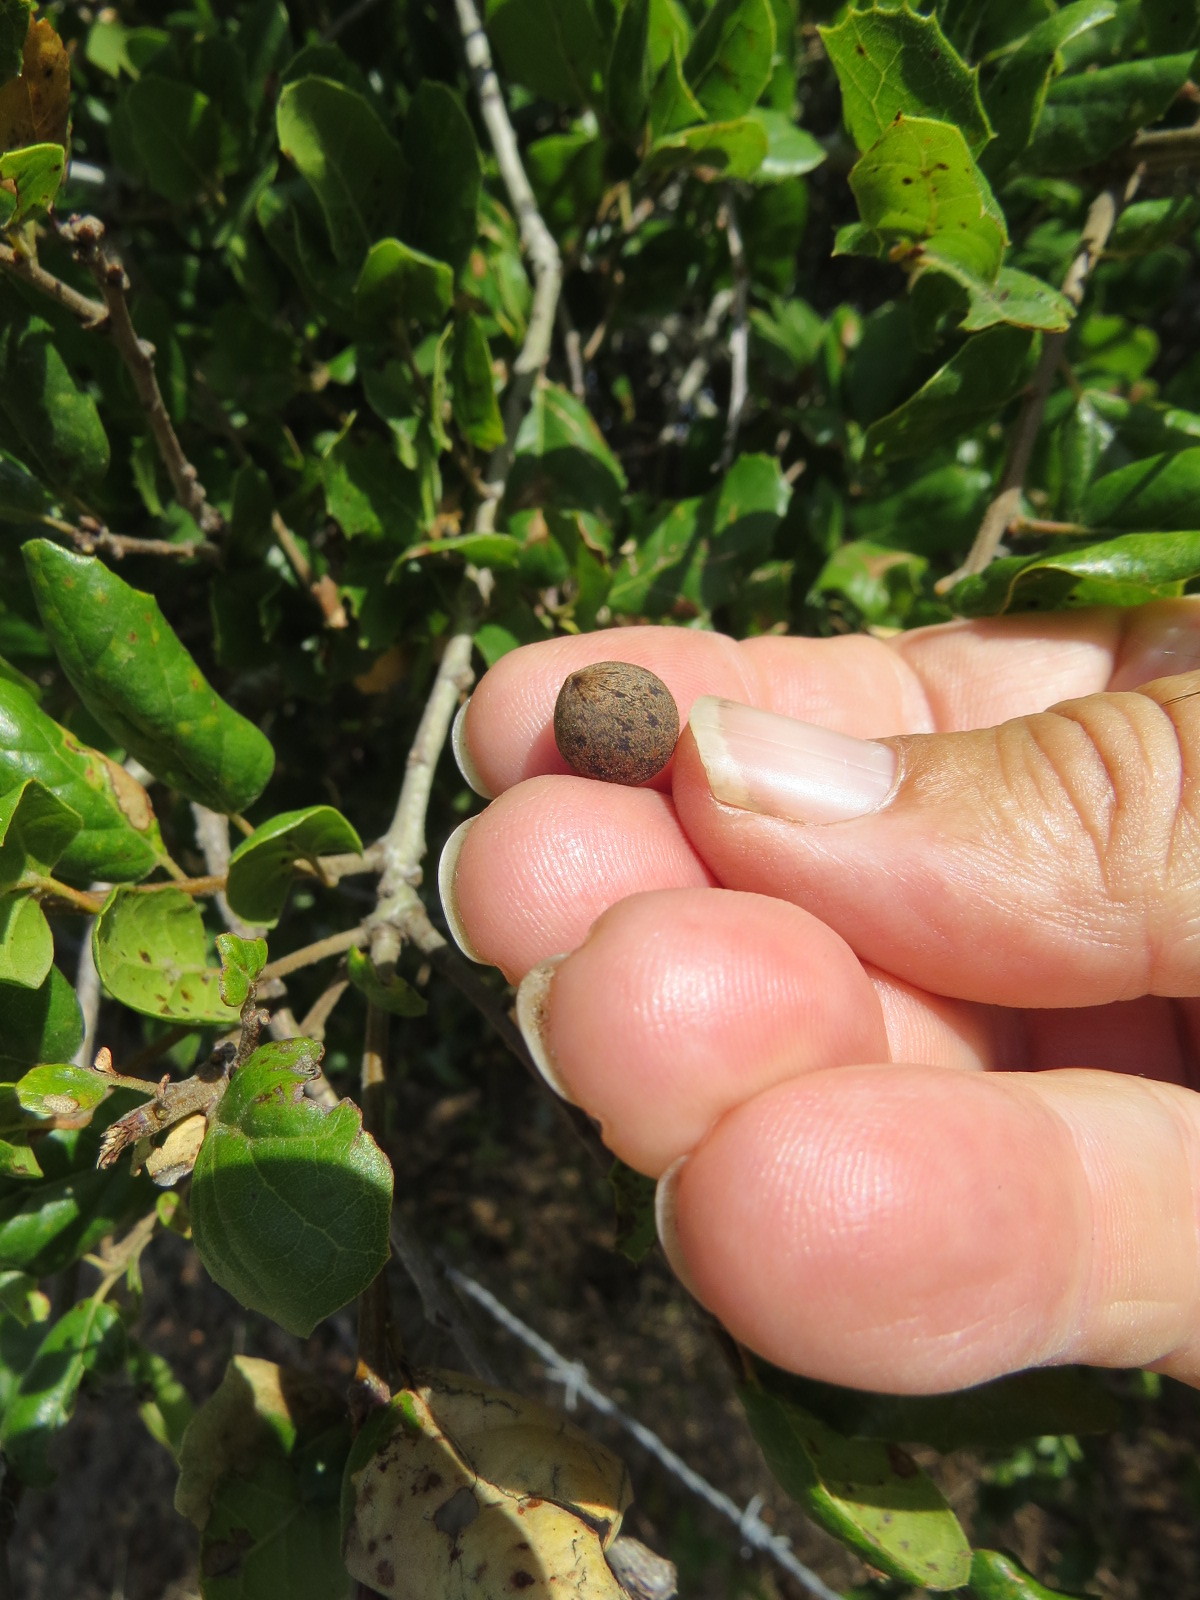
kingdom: Animalia
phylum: Arthropoda
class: Insecta
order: Hymenoptera
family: Cynipidae
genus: Callirhytis
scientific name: Callirhytis
